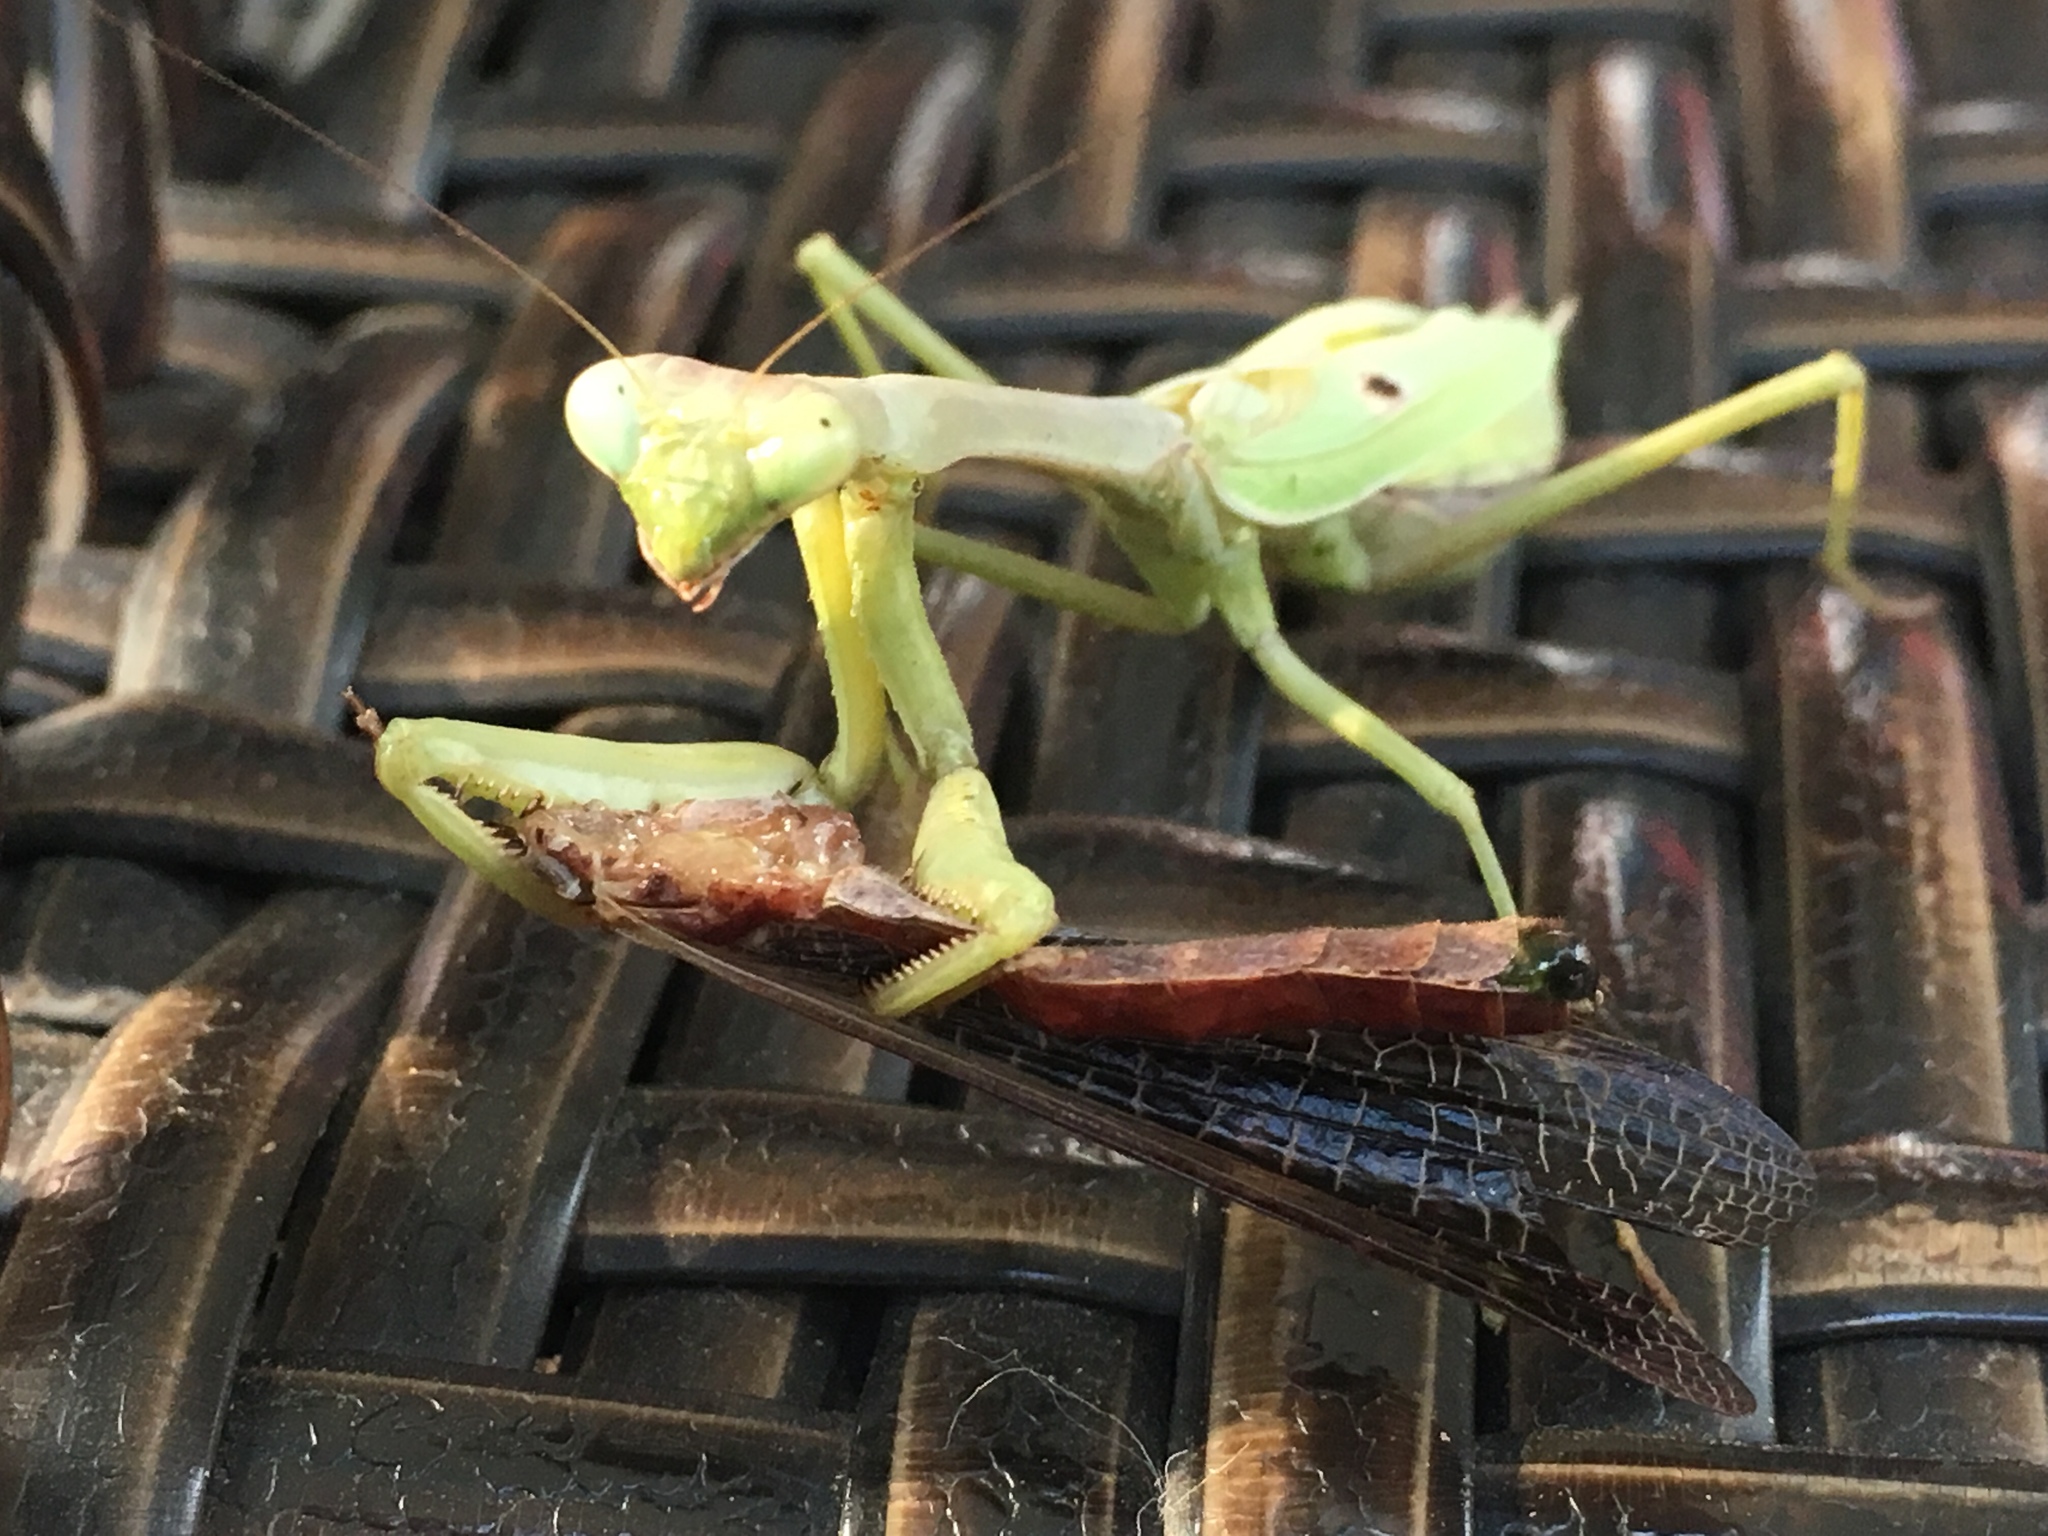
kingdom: Animalia
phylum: Arthropoda
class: Insecta
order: Mantodea
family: Mantidae
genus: Stagmomantis
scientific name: Stagmomantis carolina
